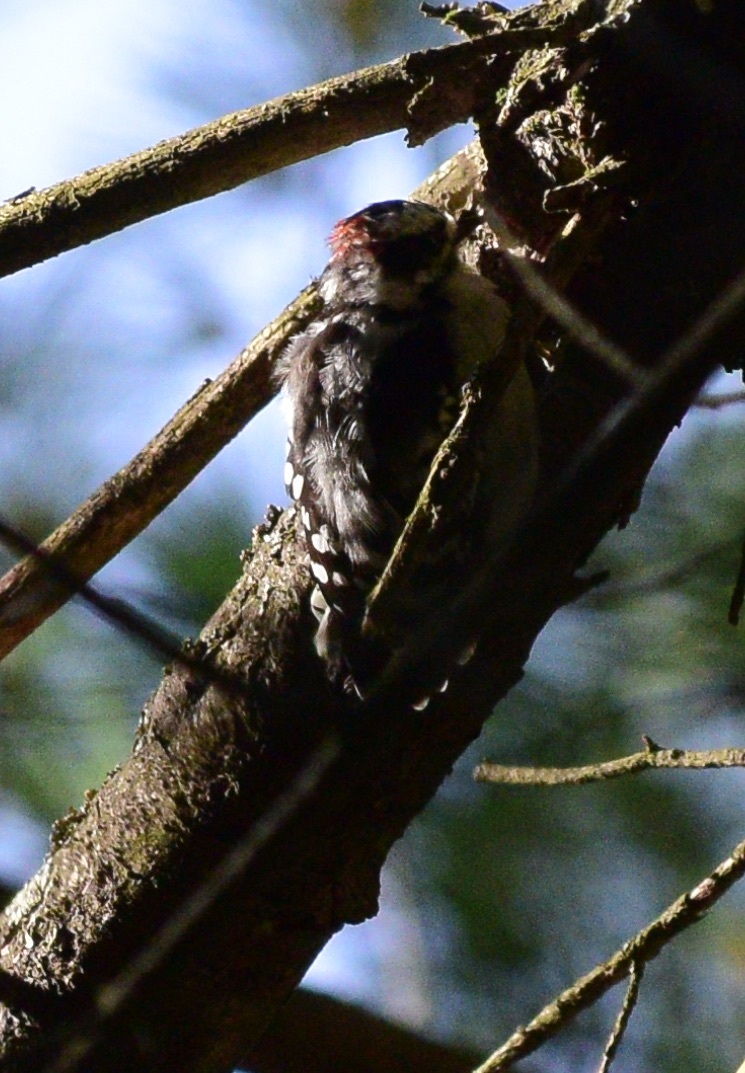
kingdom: Animalia
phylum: Chordata
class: Aves
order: Piciformes
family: Picidae
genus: Dryobates
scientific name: Dryobates pubescens
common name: Downy woodpecker
